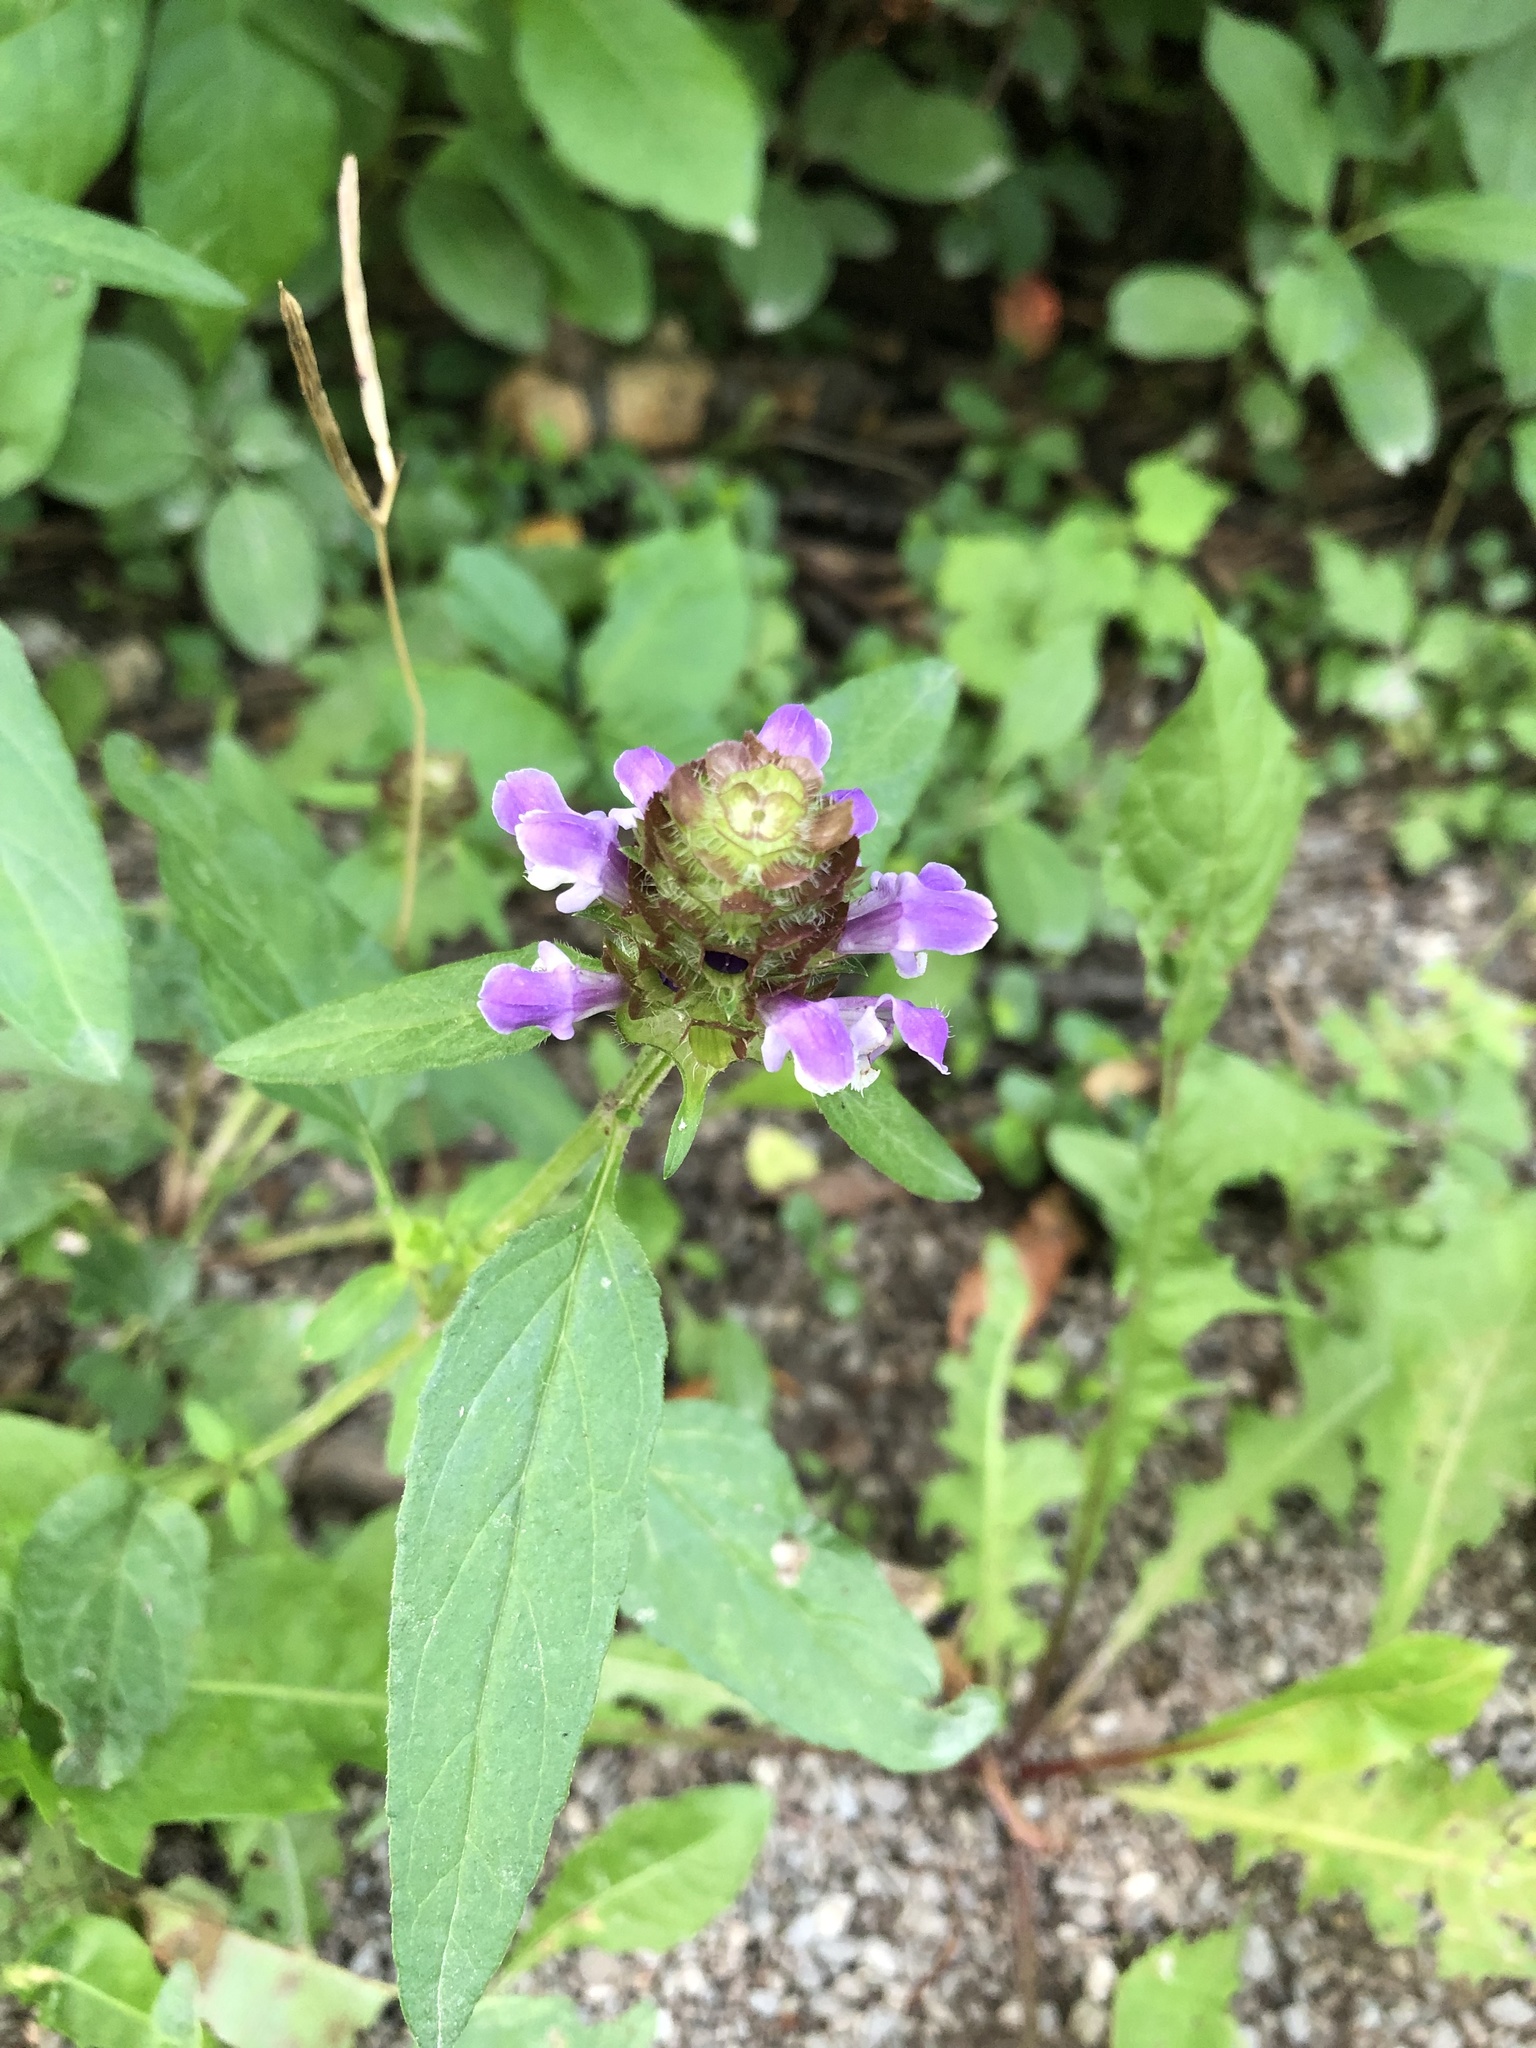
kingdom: Plantae
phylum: Tracheophyta
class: Magnoliopsida
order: Lamiales
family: Lamiaceae
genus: Prunella
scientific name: Prunella vulgaris
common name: Heal-all
